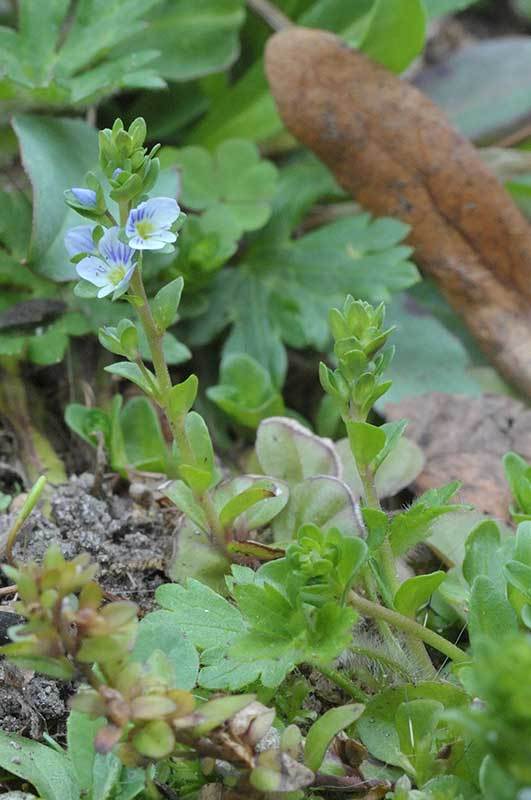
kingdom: Plantae
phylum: Tracheophyta
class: Magnoliopsida
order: Lamiales
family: Plantaginaceae
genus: Veronica
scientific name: Veronica serpyllifolia
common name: Thyme-leaved speedwell
